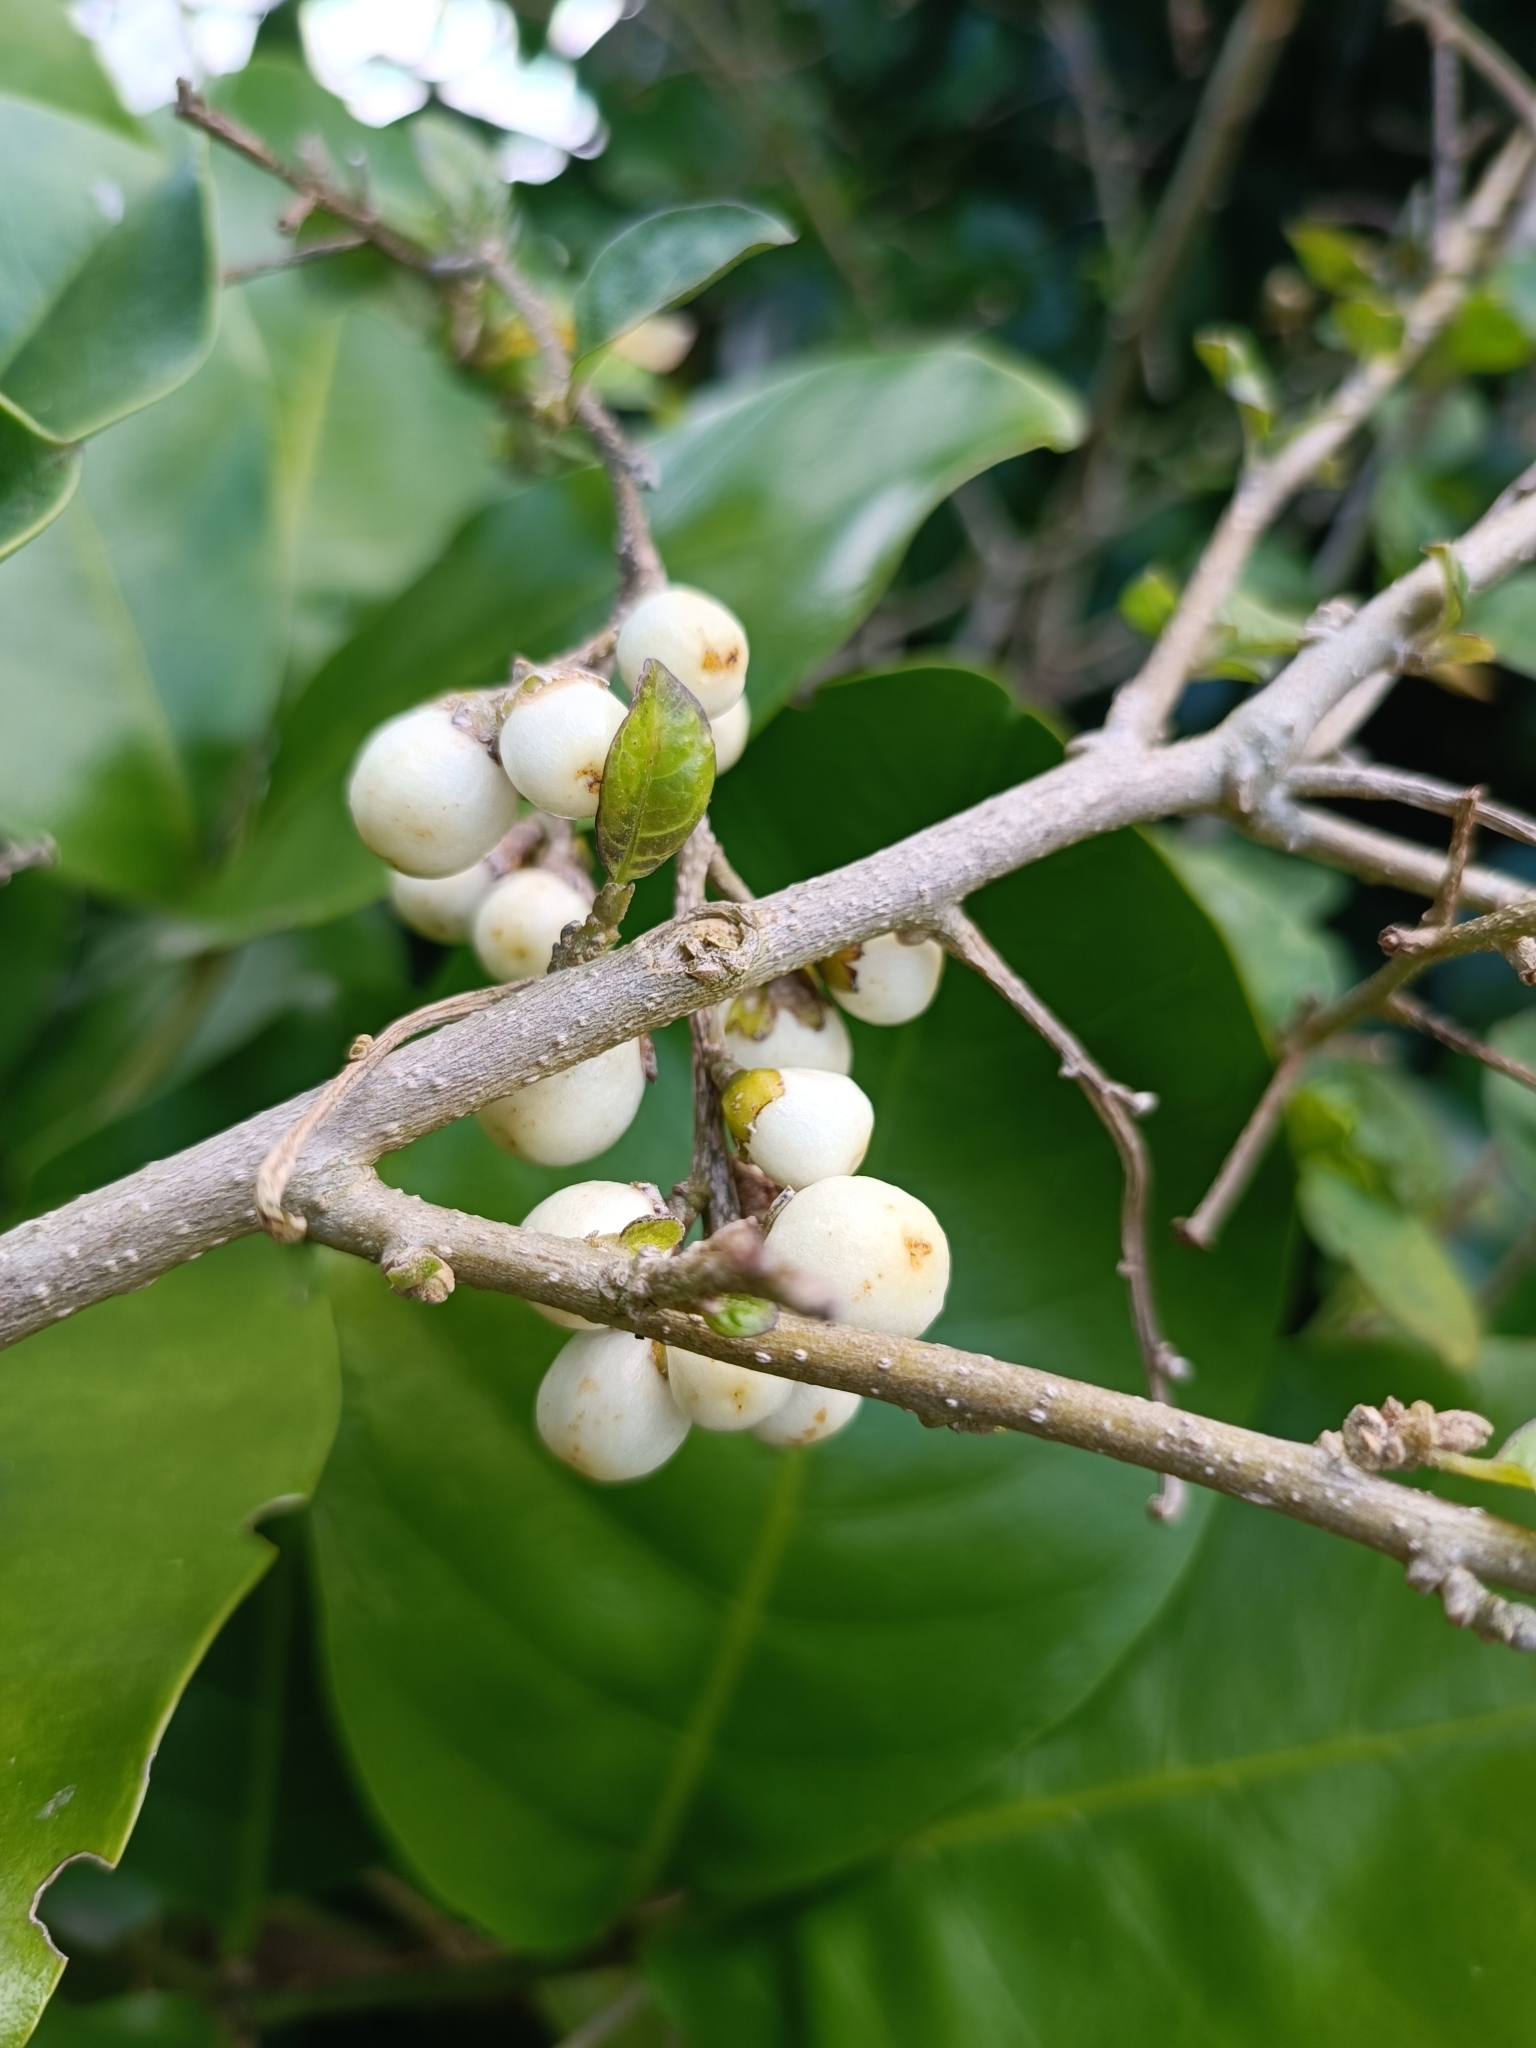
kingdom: Plantae
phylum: Tracheophyta
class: Magnoliopsida
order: Solanales
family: Solanaceae
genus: Cestrum
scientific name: Cestrum aurantiacum
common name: Orange cestrum
